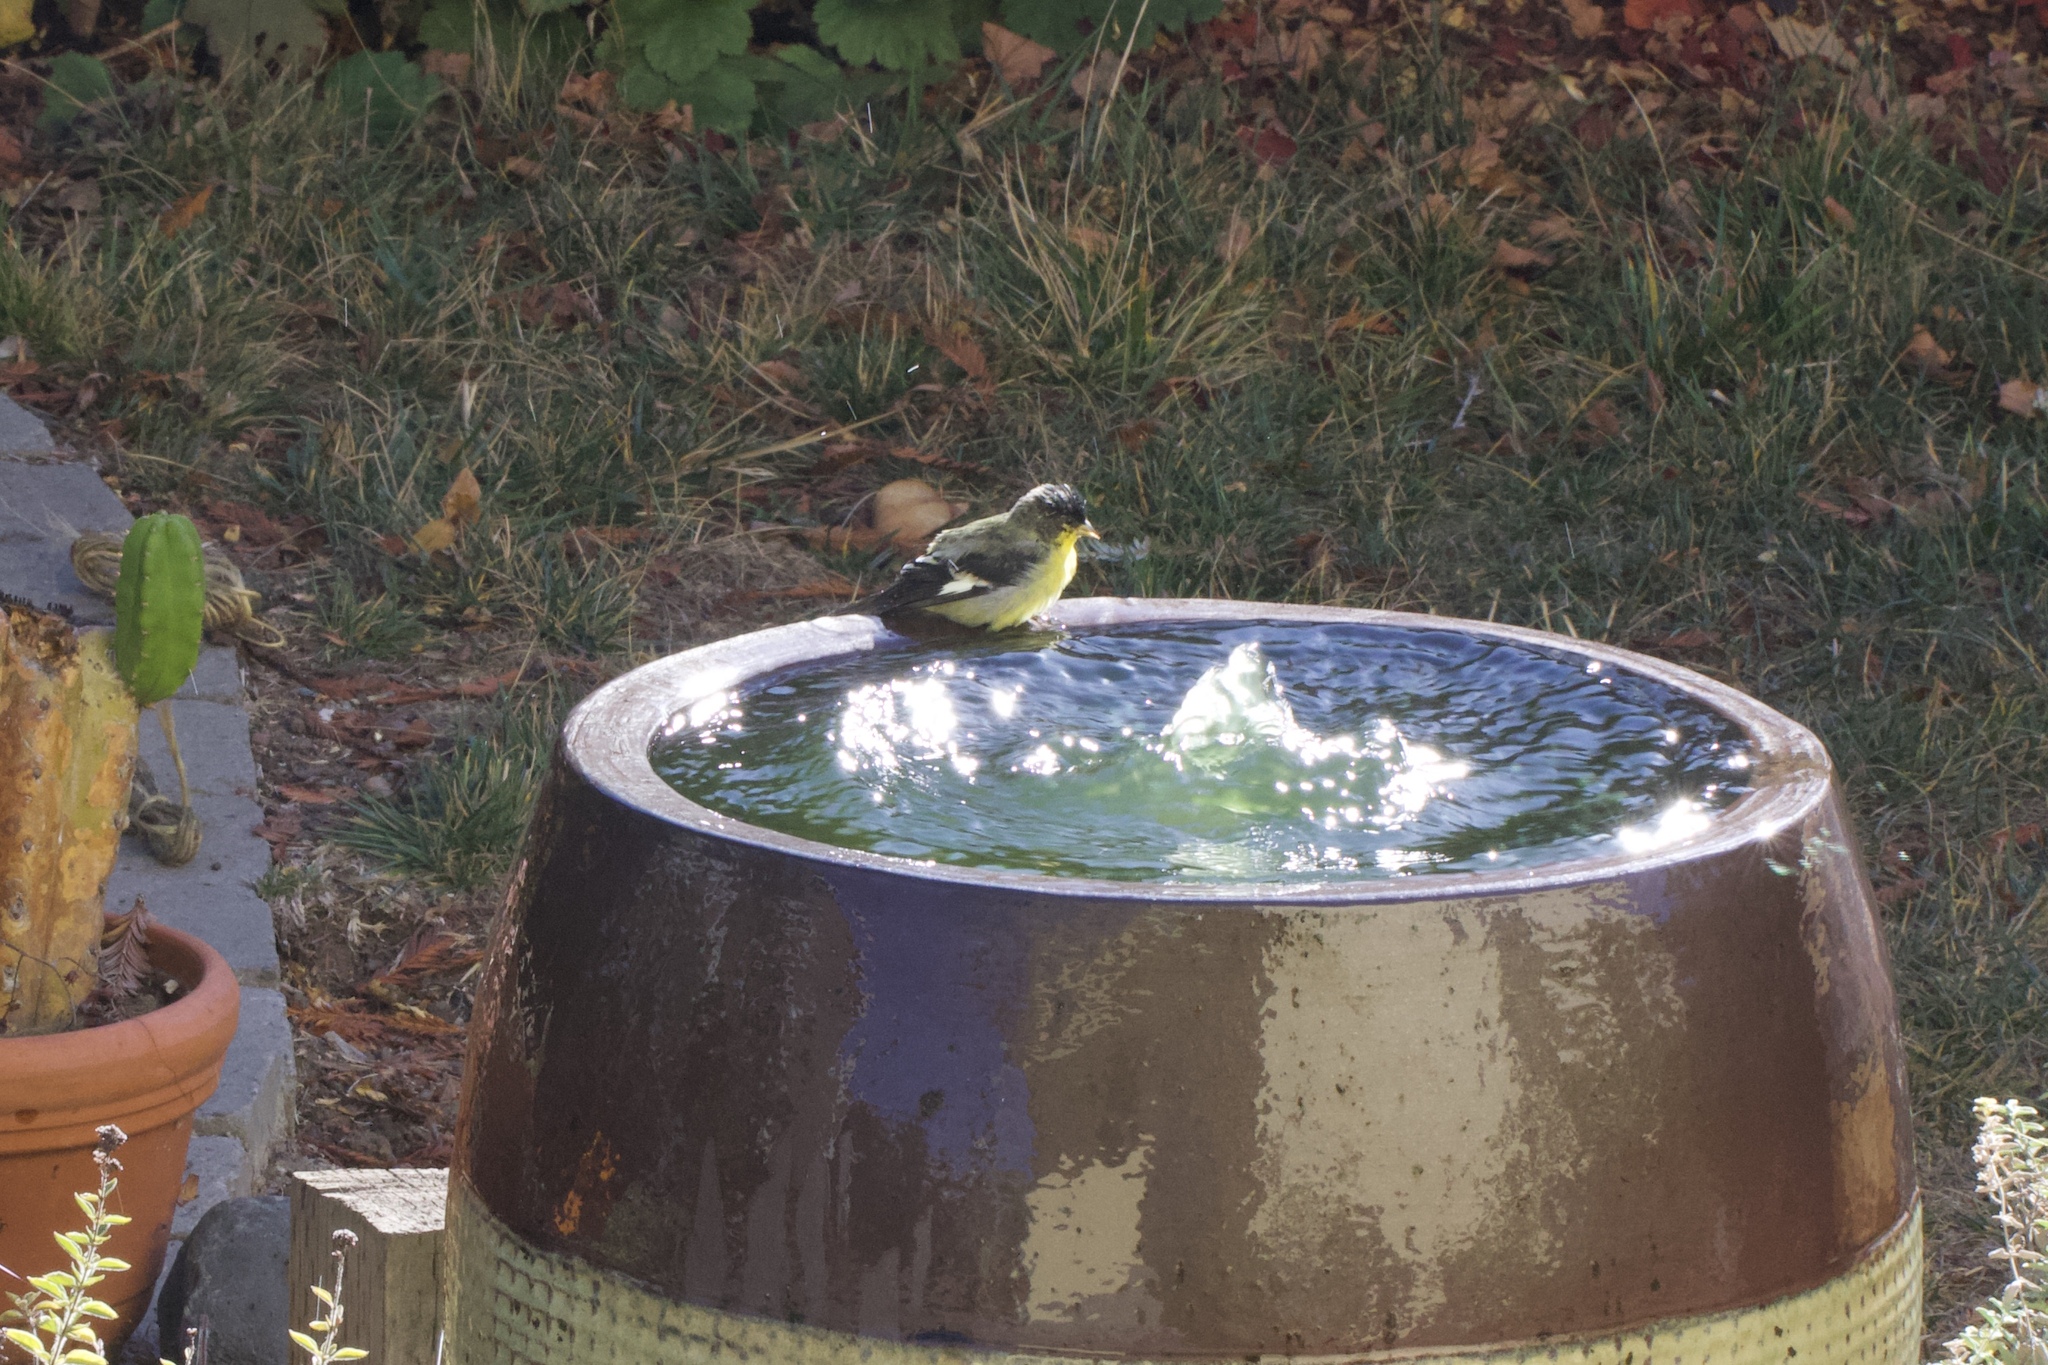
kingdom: Animalia
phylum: Chordata
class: Aves
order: Passeriformes
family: Fringillidae
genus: Spinus
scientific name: Spinus psaltria
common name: Lesser goldfinch
